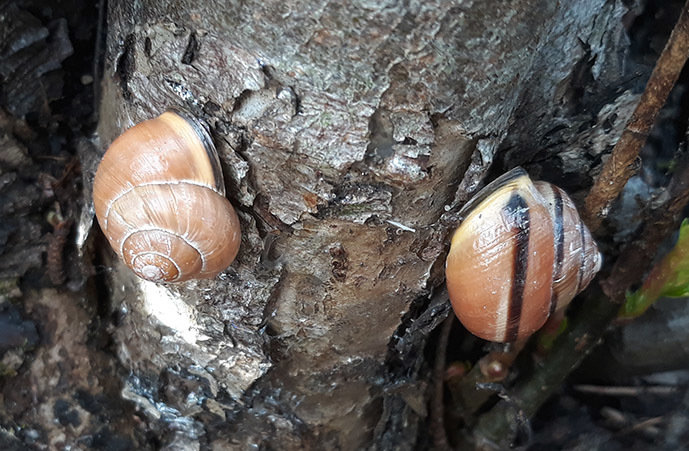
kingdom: Animalia
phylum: Mollusca
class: Gastropoda
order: Stylommatophora
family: Helicidae
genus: Cepaea
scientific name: Cepaea nemoralis
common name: Grovesnail
